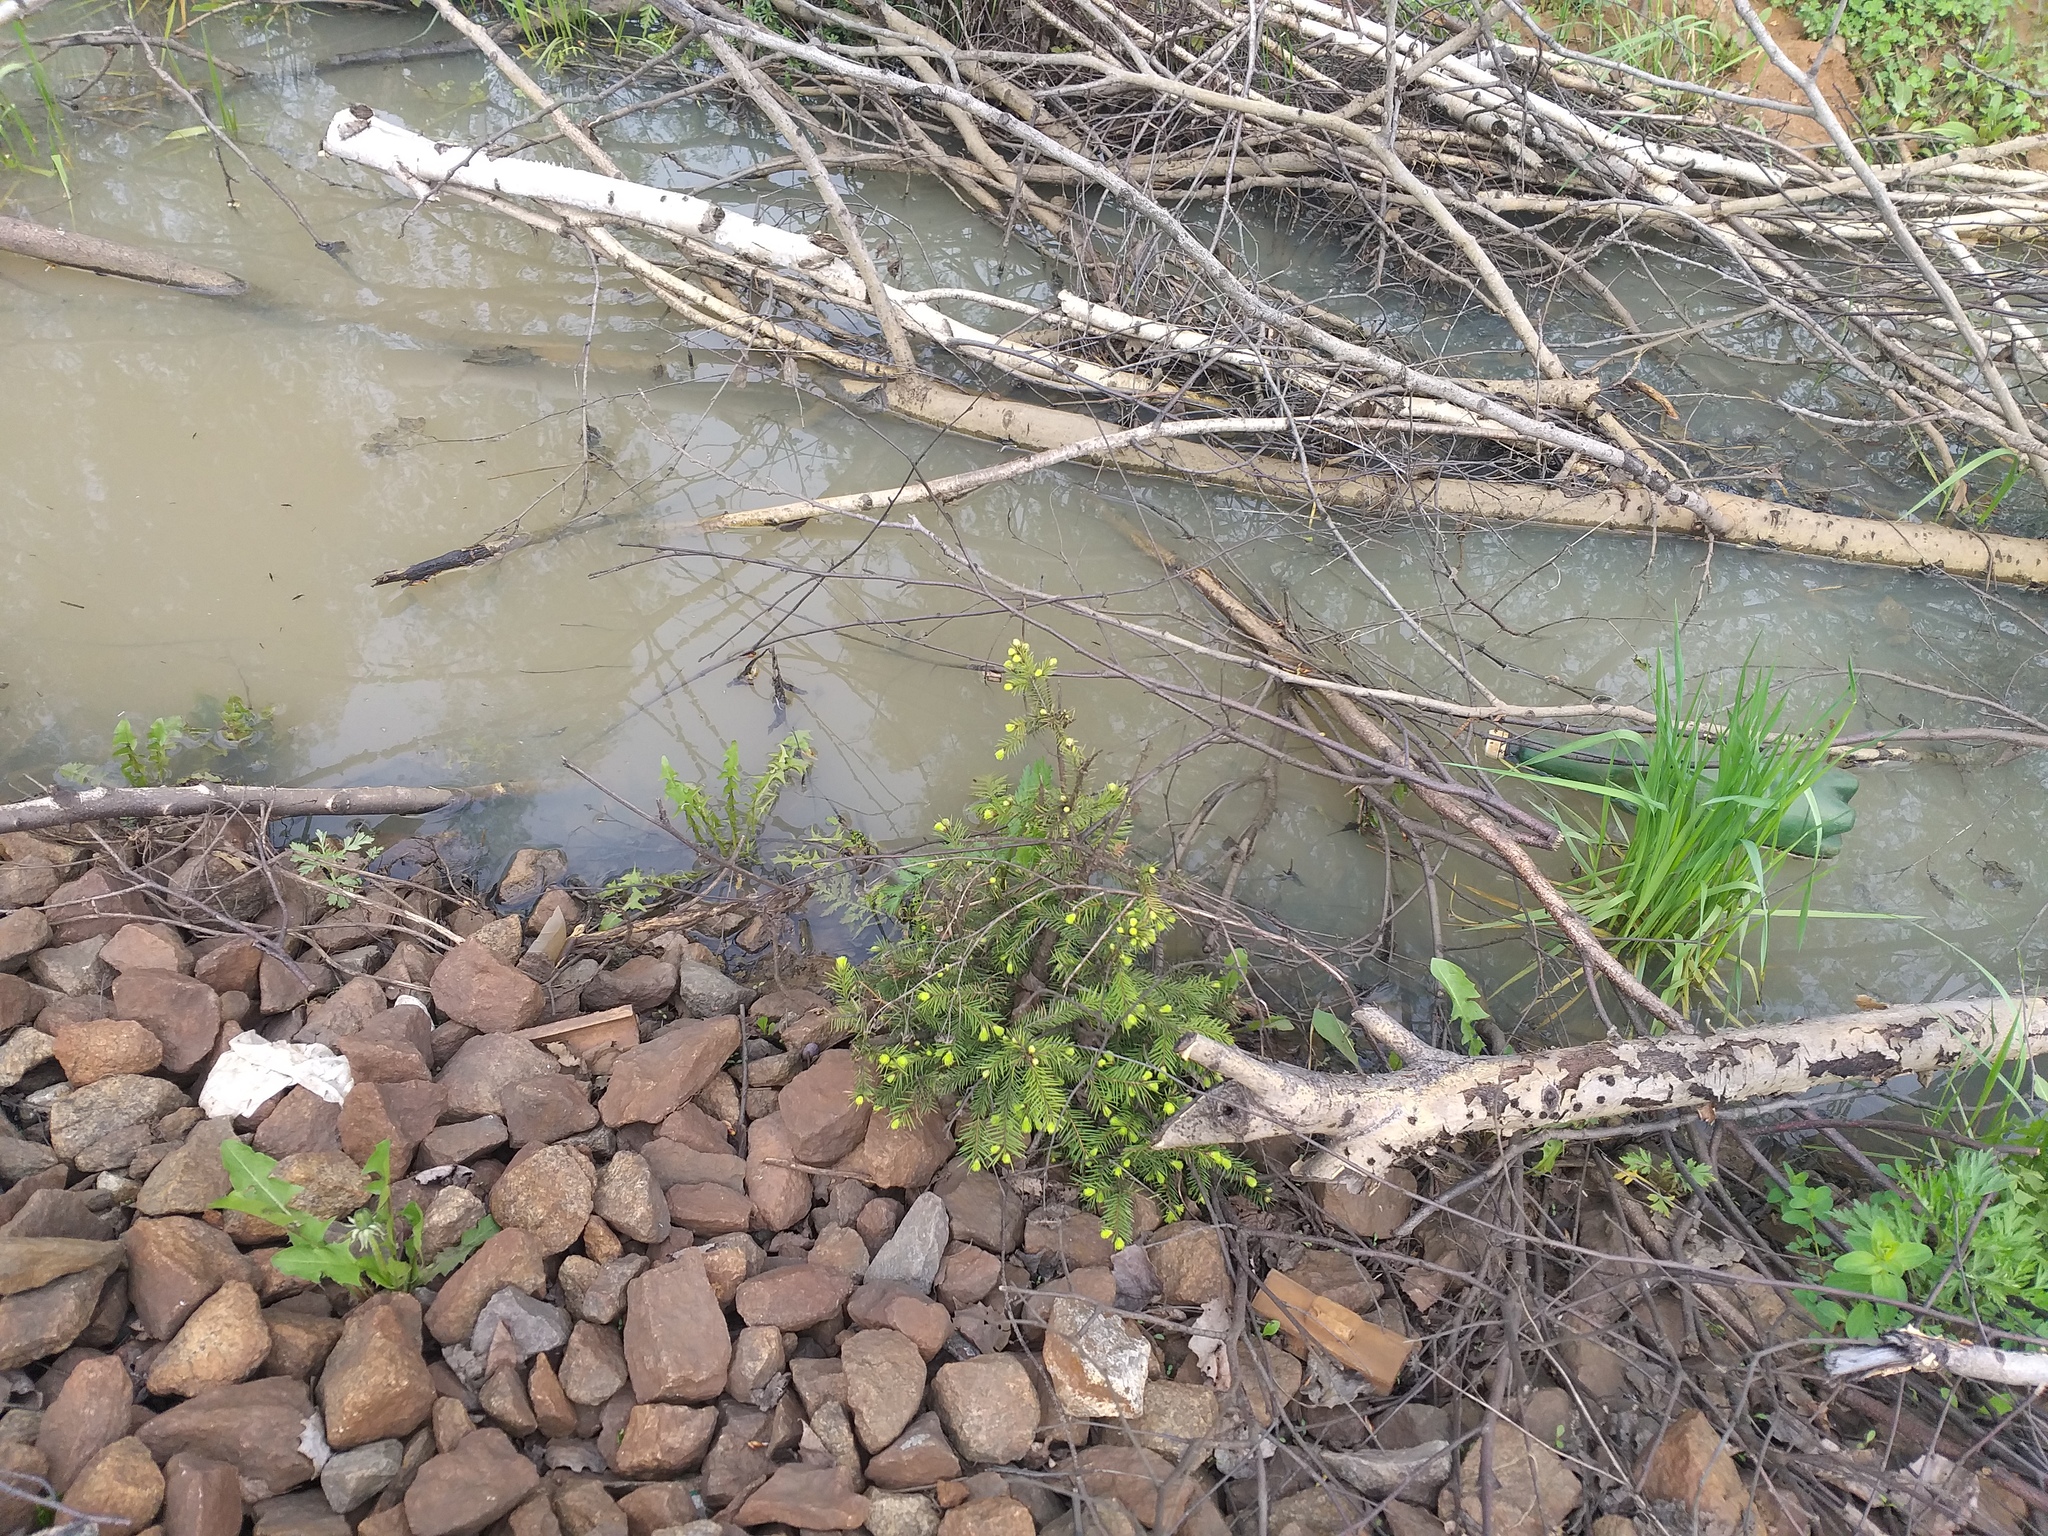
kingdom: Plantae
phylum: Tracheophyta
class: Pinopsida
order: Pinales
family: Pinaceae
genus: Picea
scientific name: Picea abies
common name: Norway spruce
